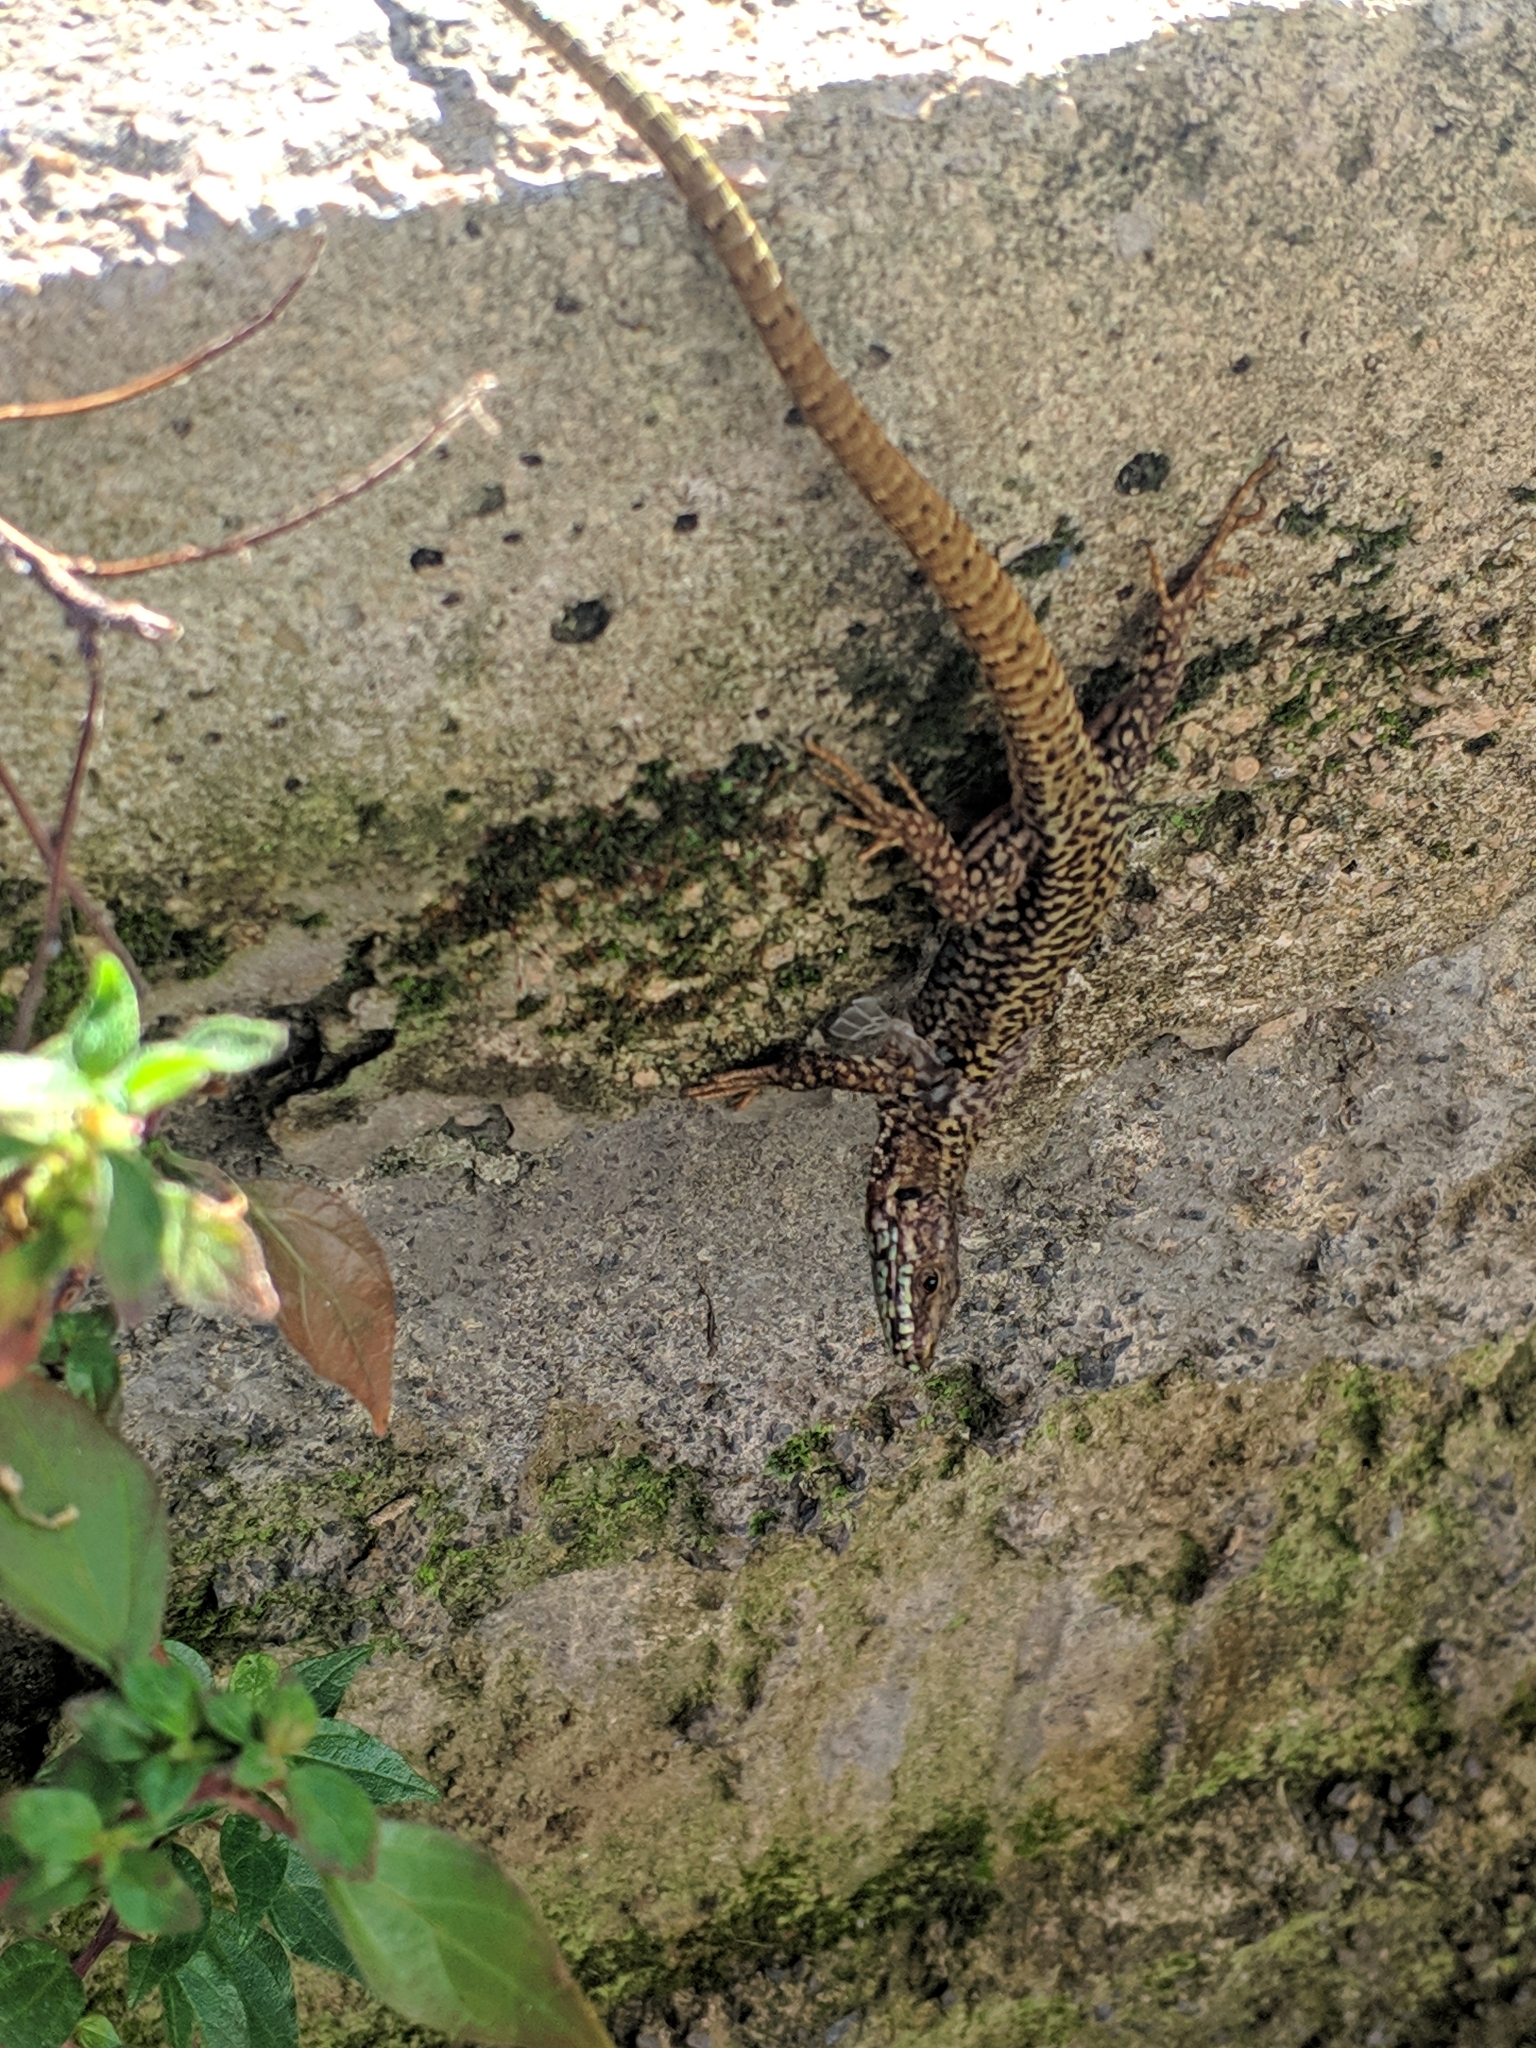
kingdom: Animalia
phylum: Chordata
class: Squamata
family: Lacertidae
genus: Podarcis
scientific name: Podarcis muralis
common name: Common wall lizard
